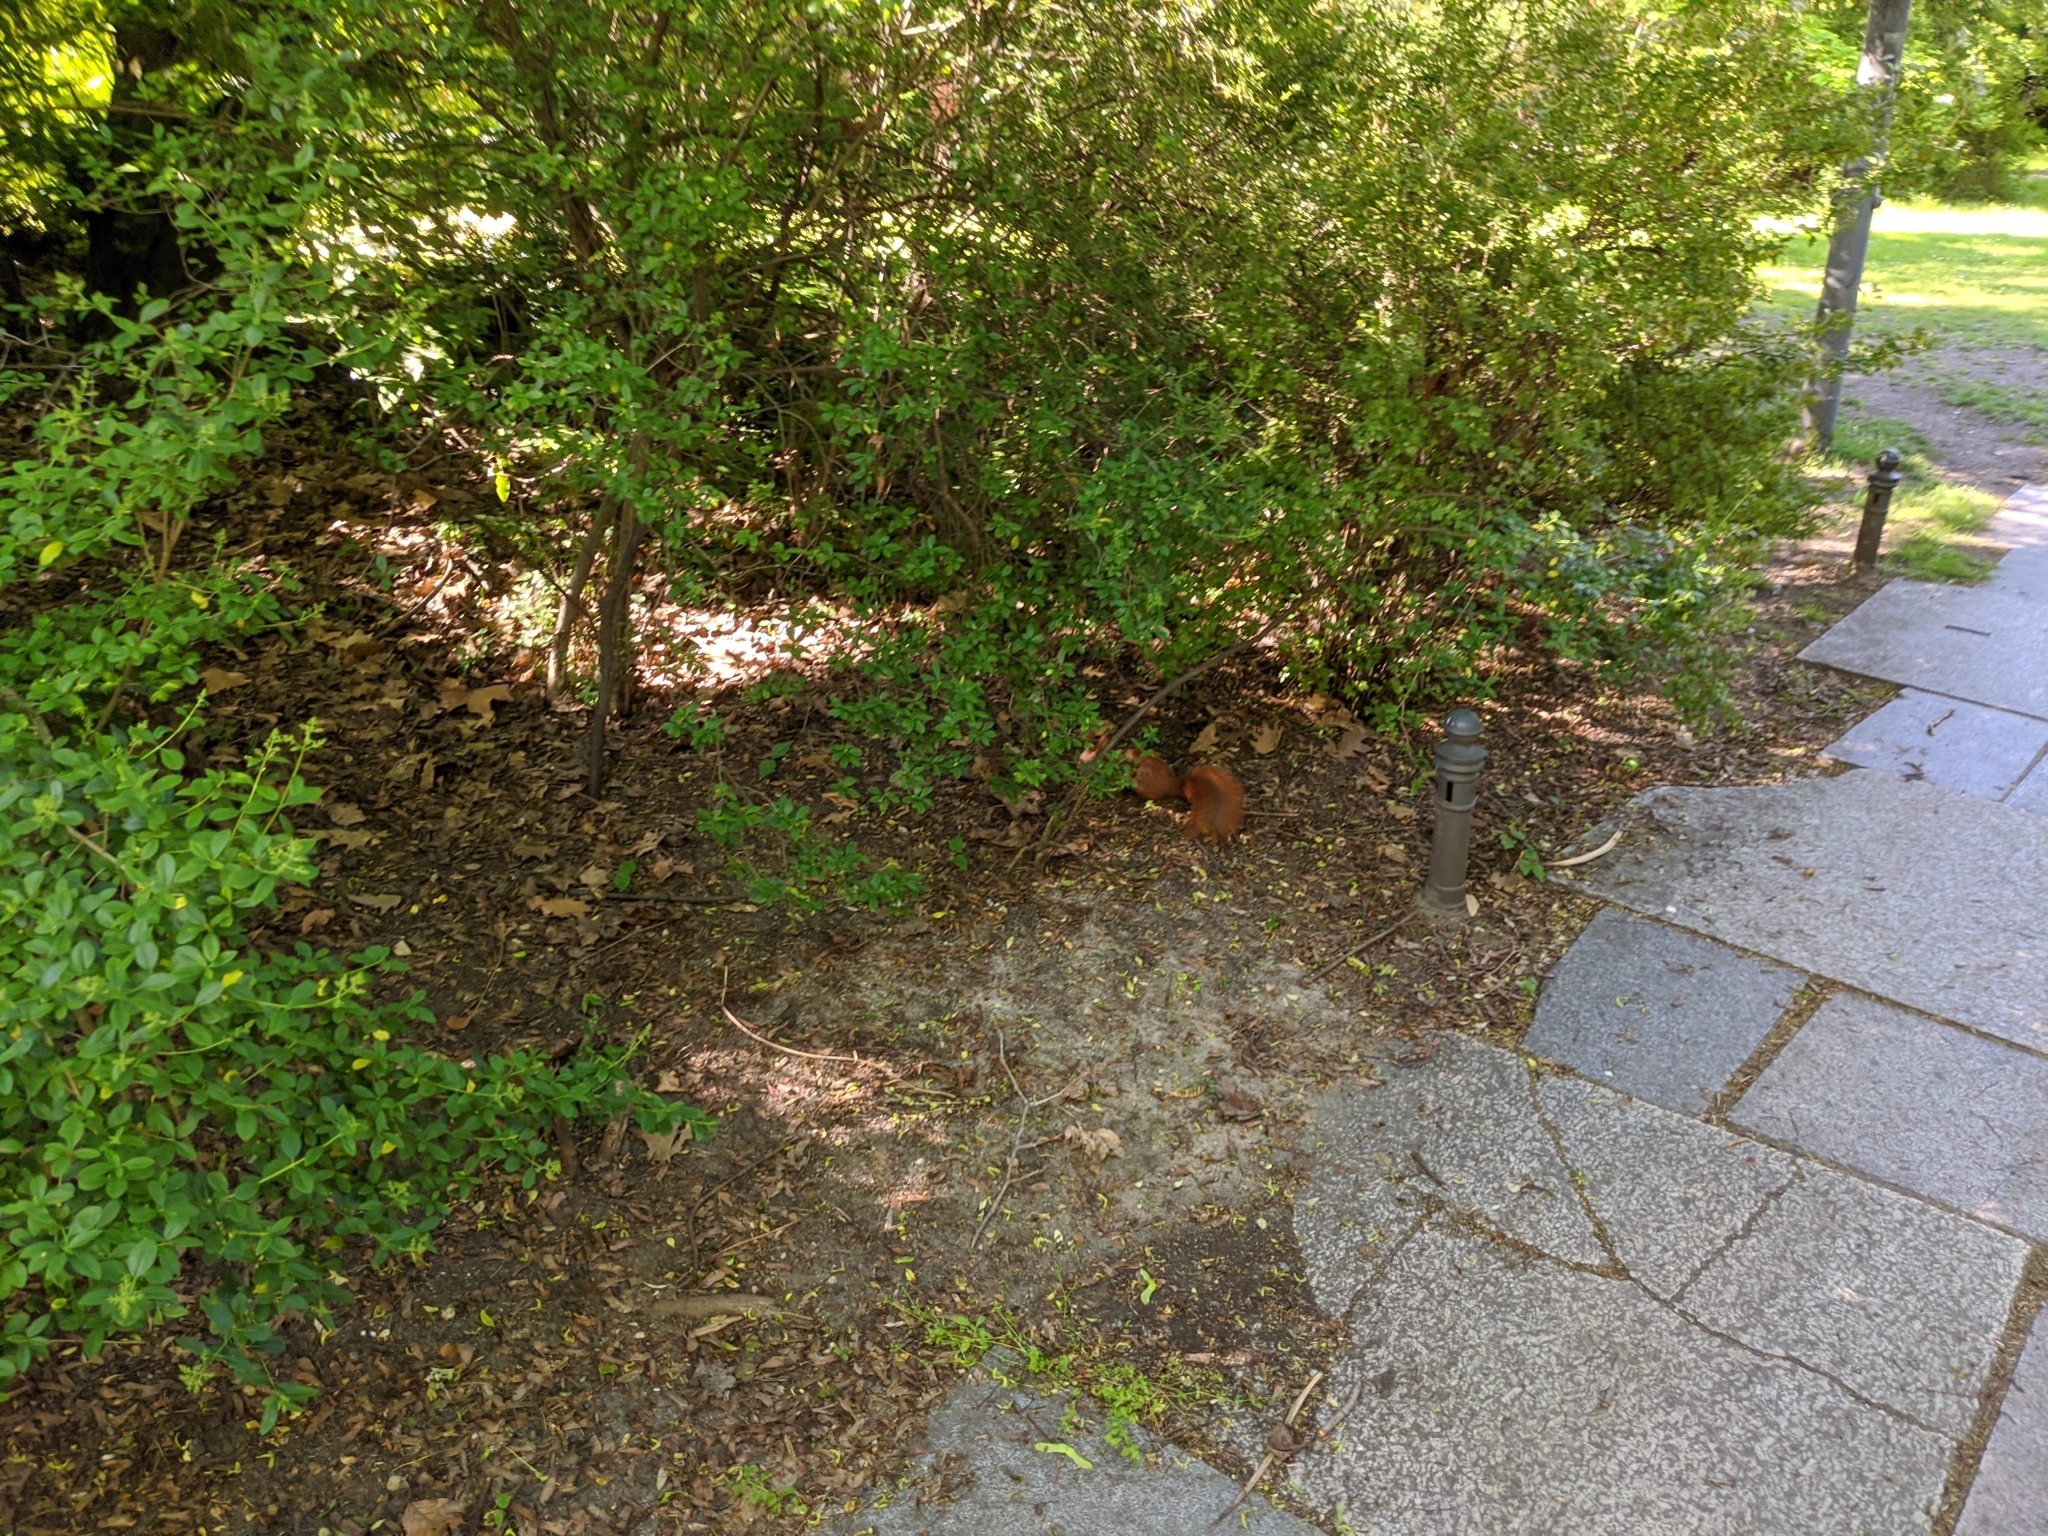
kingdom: Animalia
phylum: Chordata
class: Mammalia
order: Rodentia
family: Sciuridae
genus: Sciurus
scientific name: Sciurus vulgaris
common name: Eurasian red squirrel
